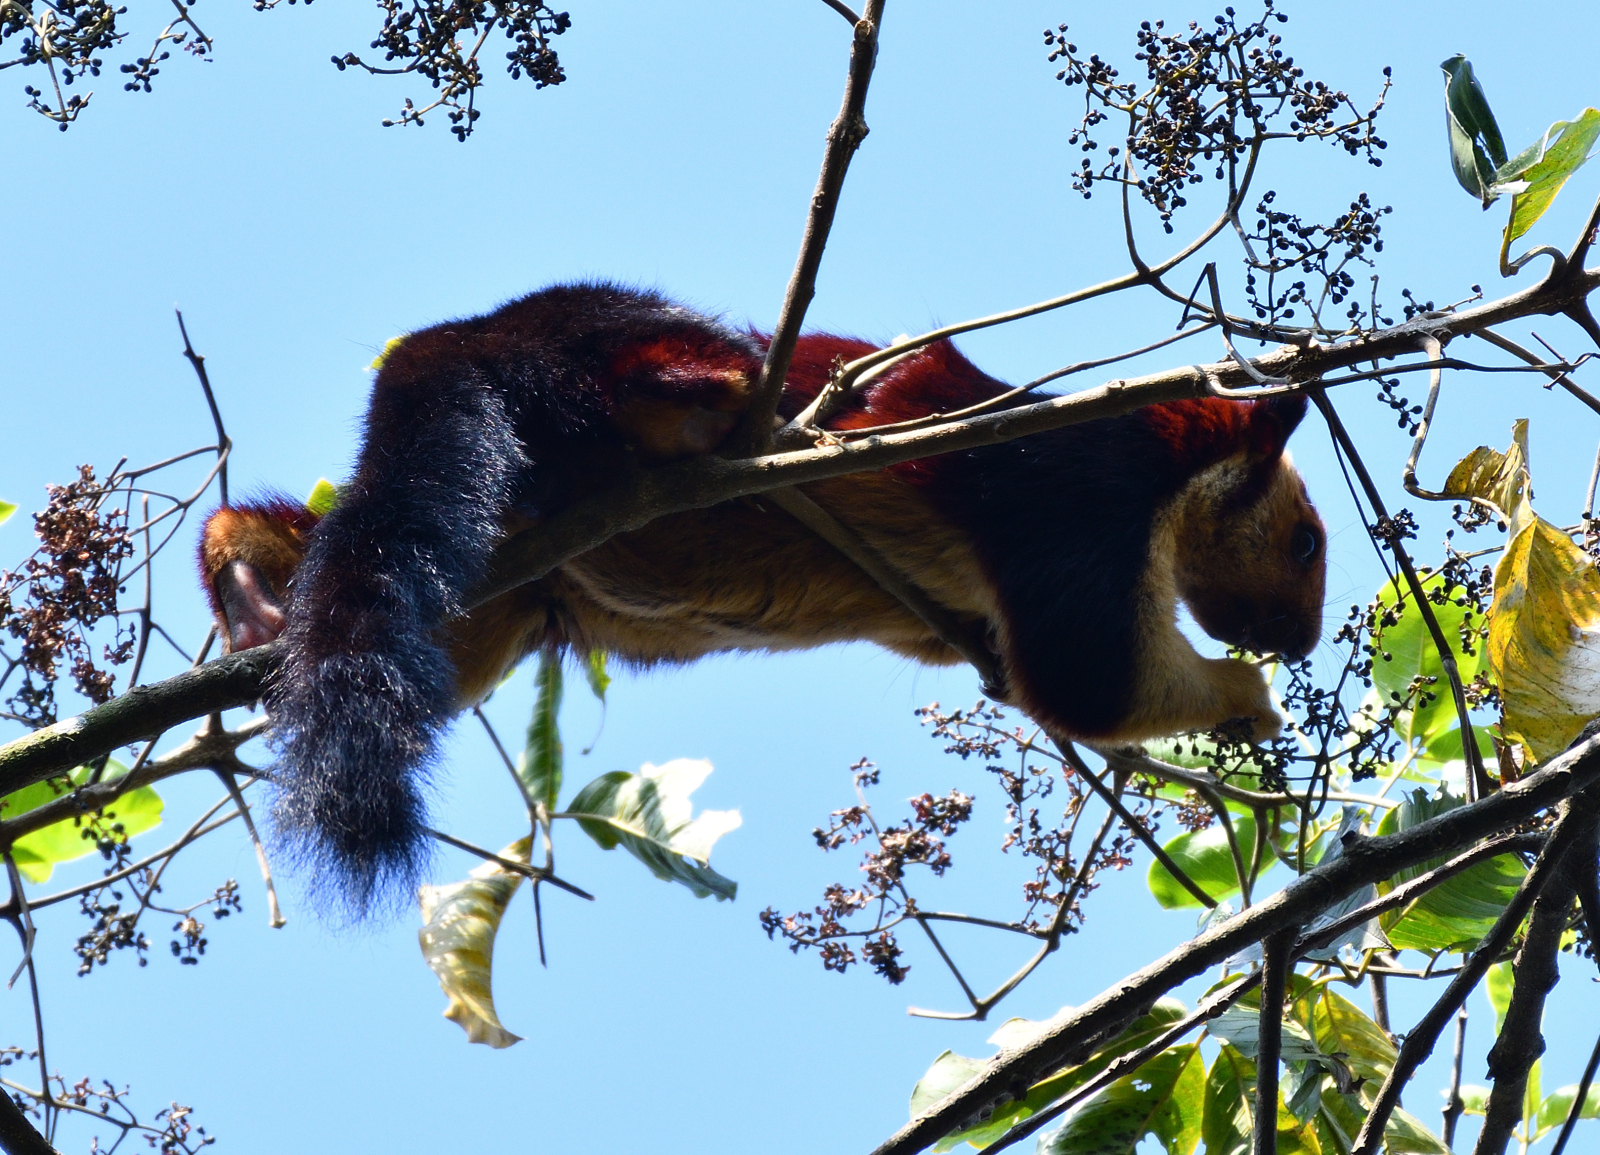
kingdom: Animalia
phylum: Chordata
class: Mammalia
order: Rodentia
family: Sciuridae
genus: Ratufa
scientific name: Ratufa indica
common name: Indian giant squirrel
